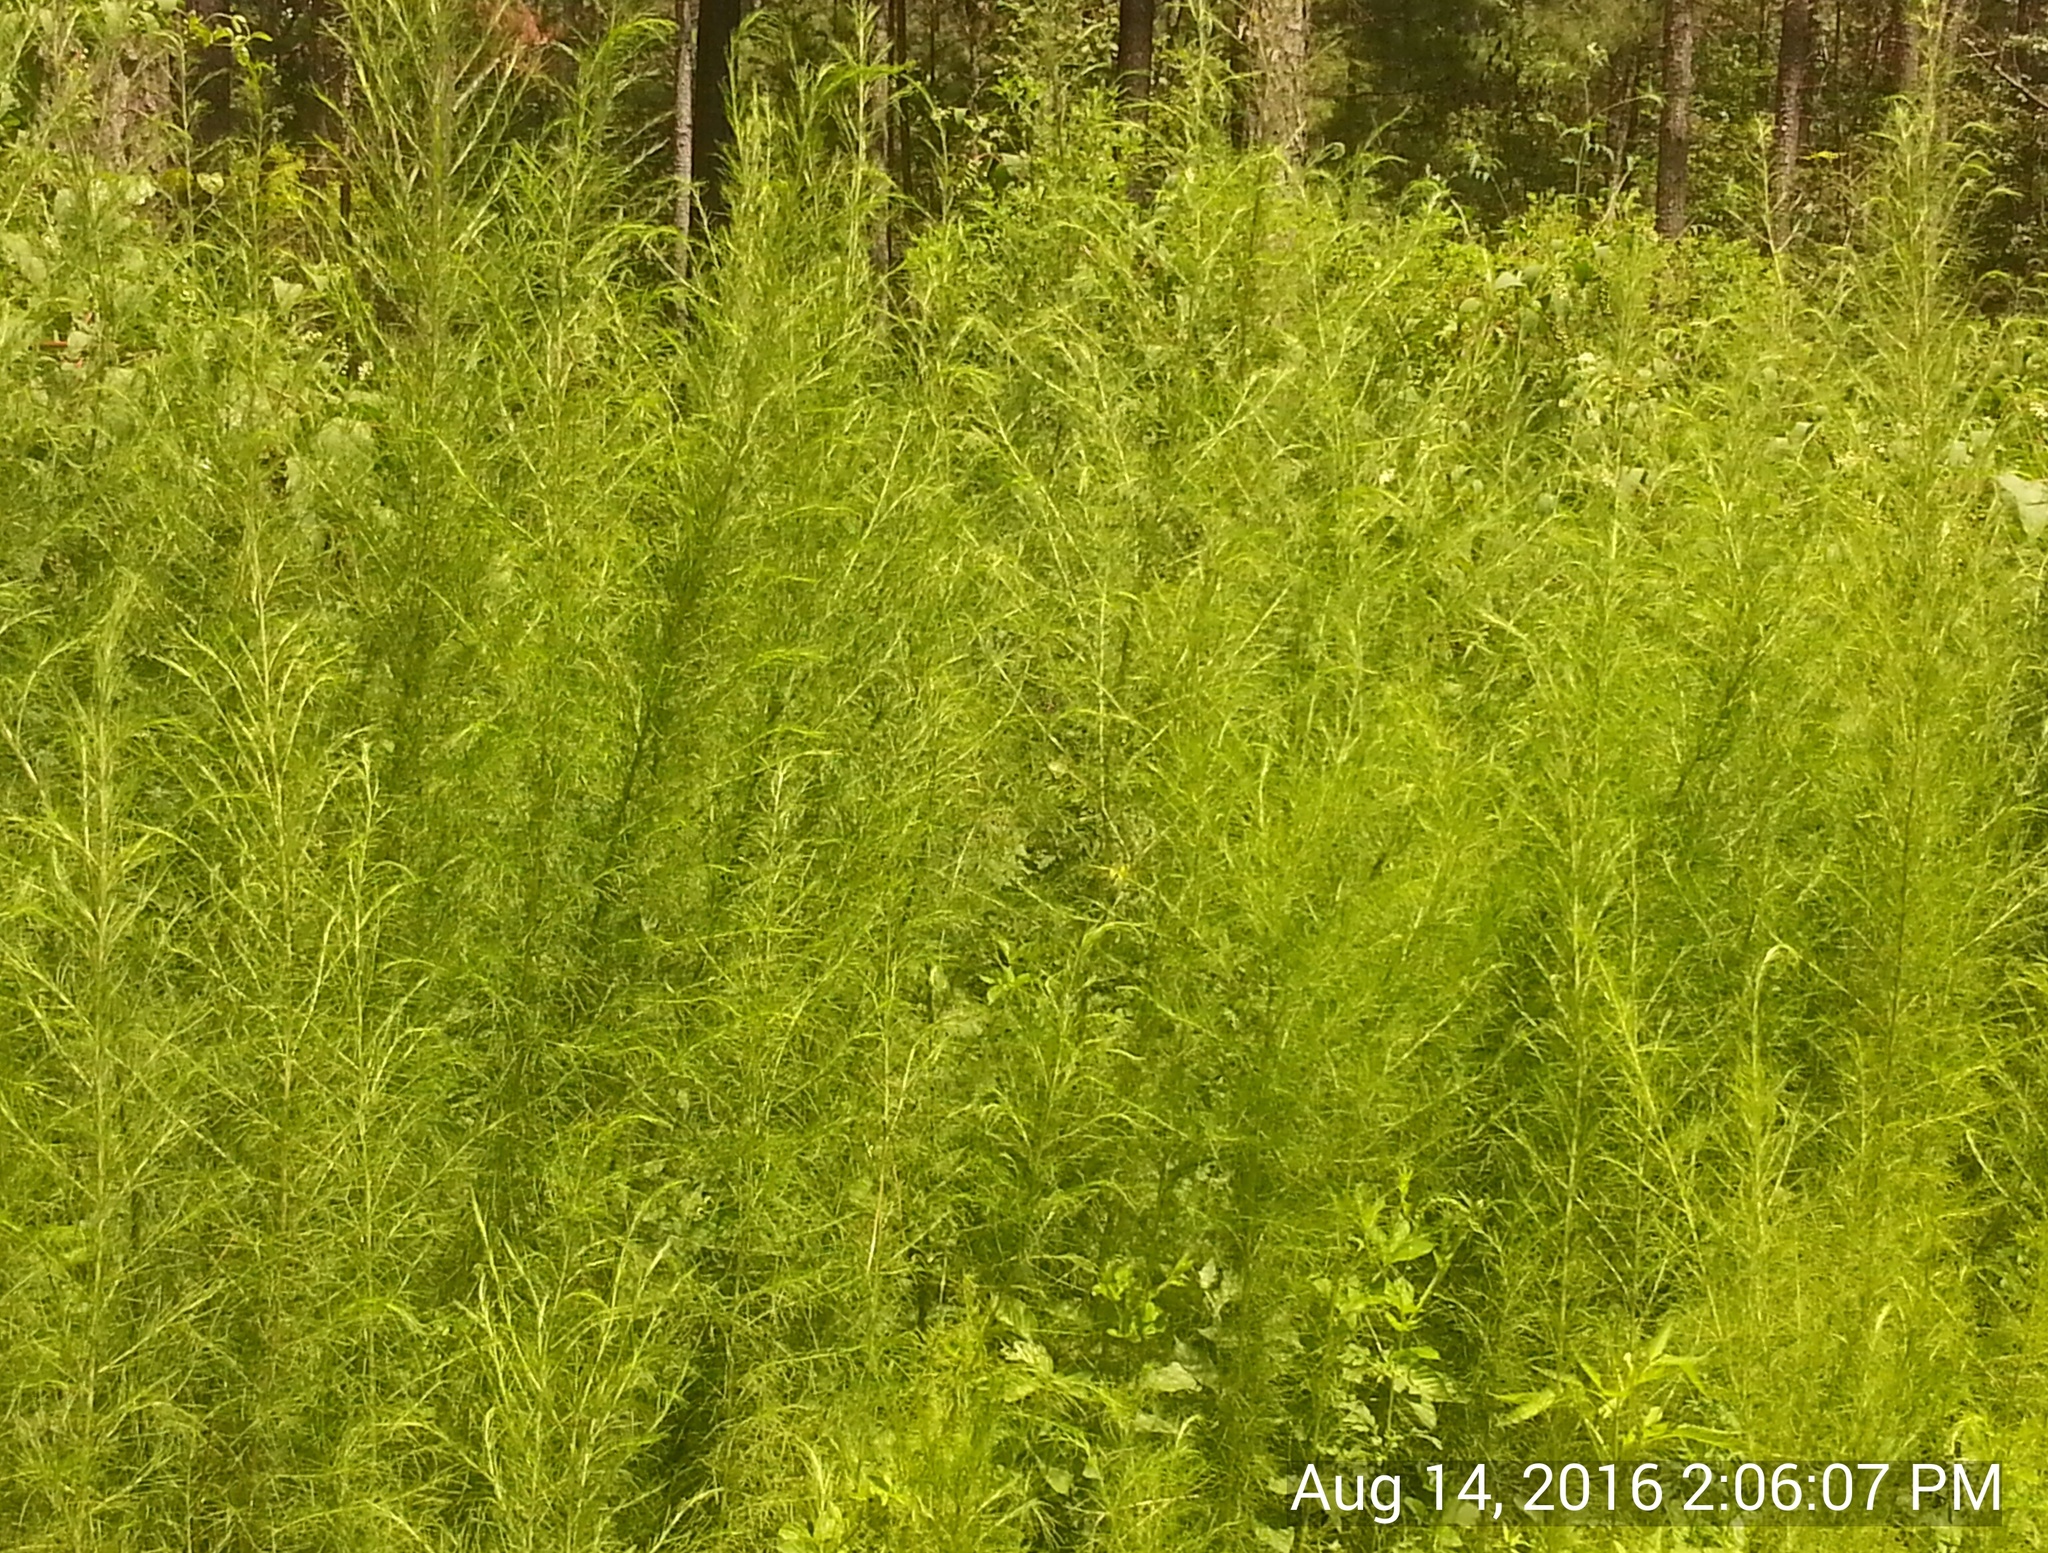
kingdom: Plantae
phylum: Tracheophyta
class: Magnoliopsida
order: Asterales
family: Asteraceae
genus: Eupatorium
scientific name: Eupatorium capillifolium
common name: Dog-fennel
